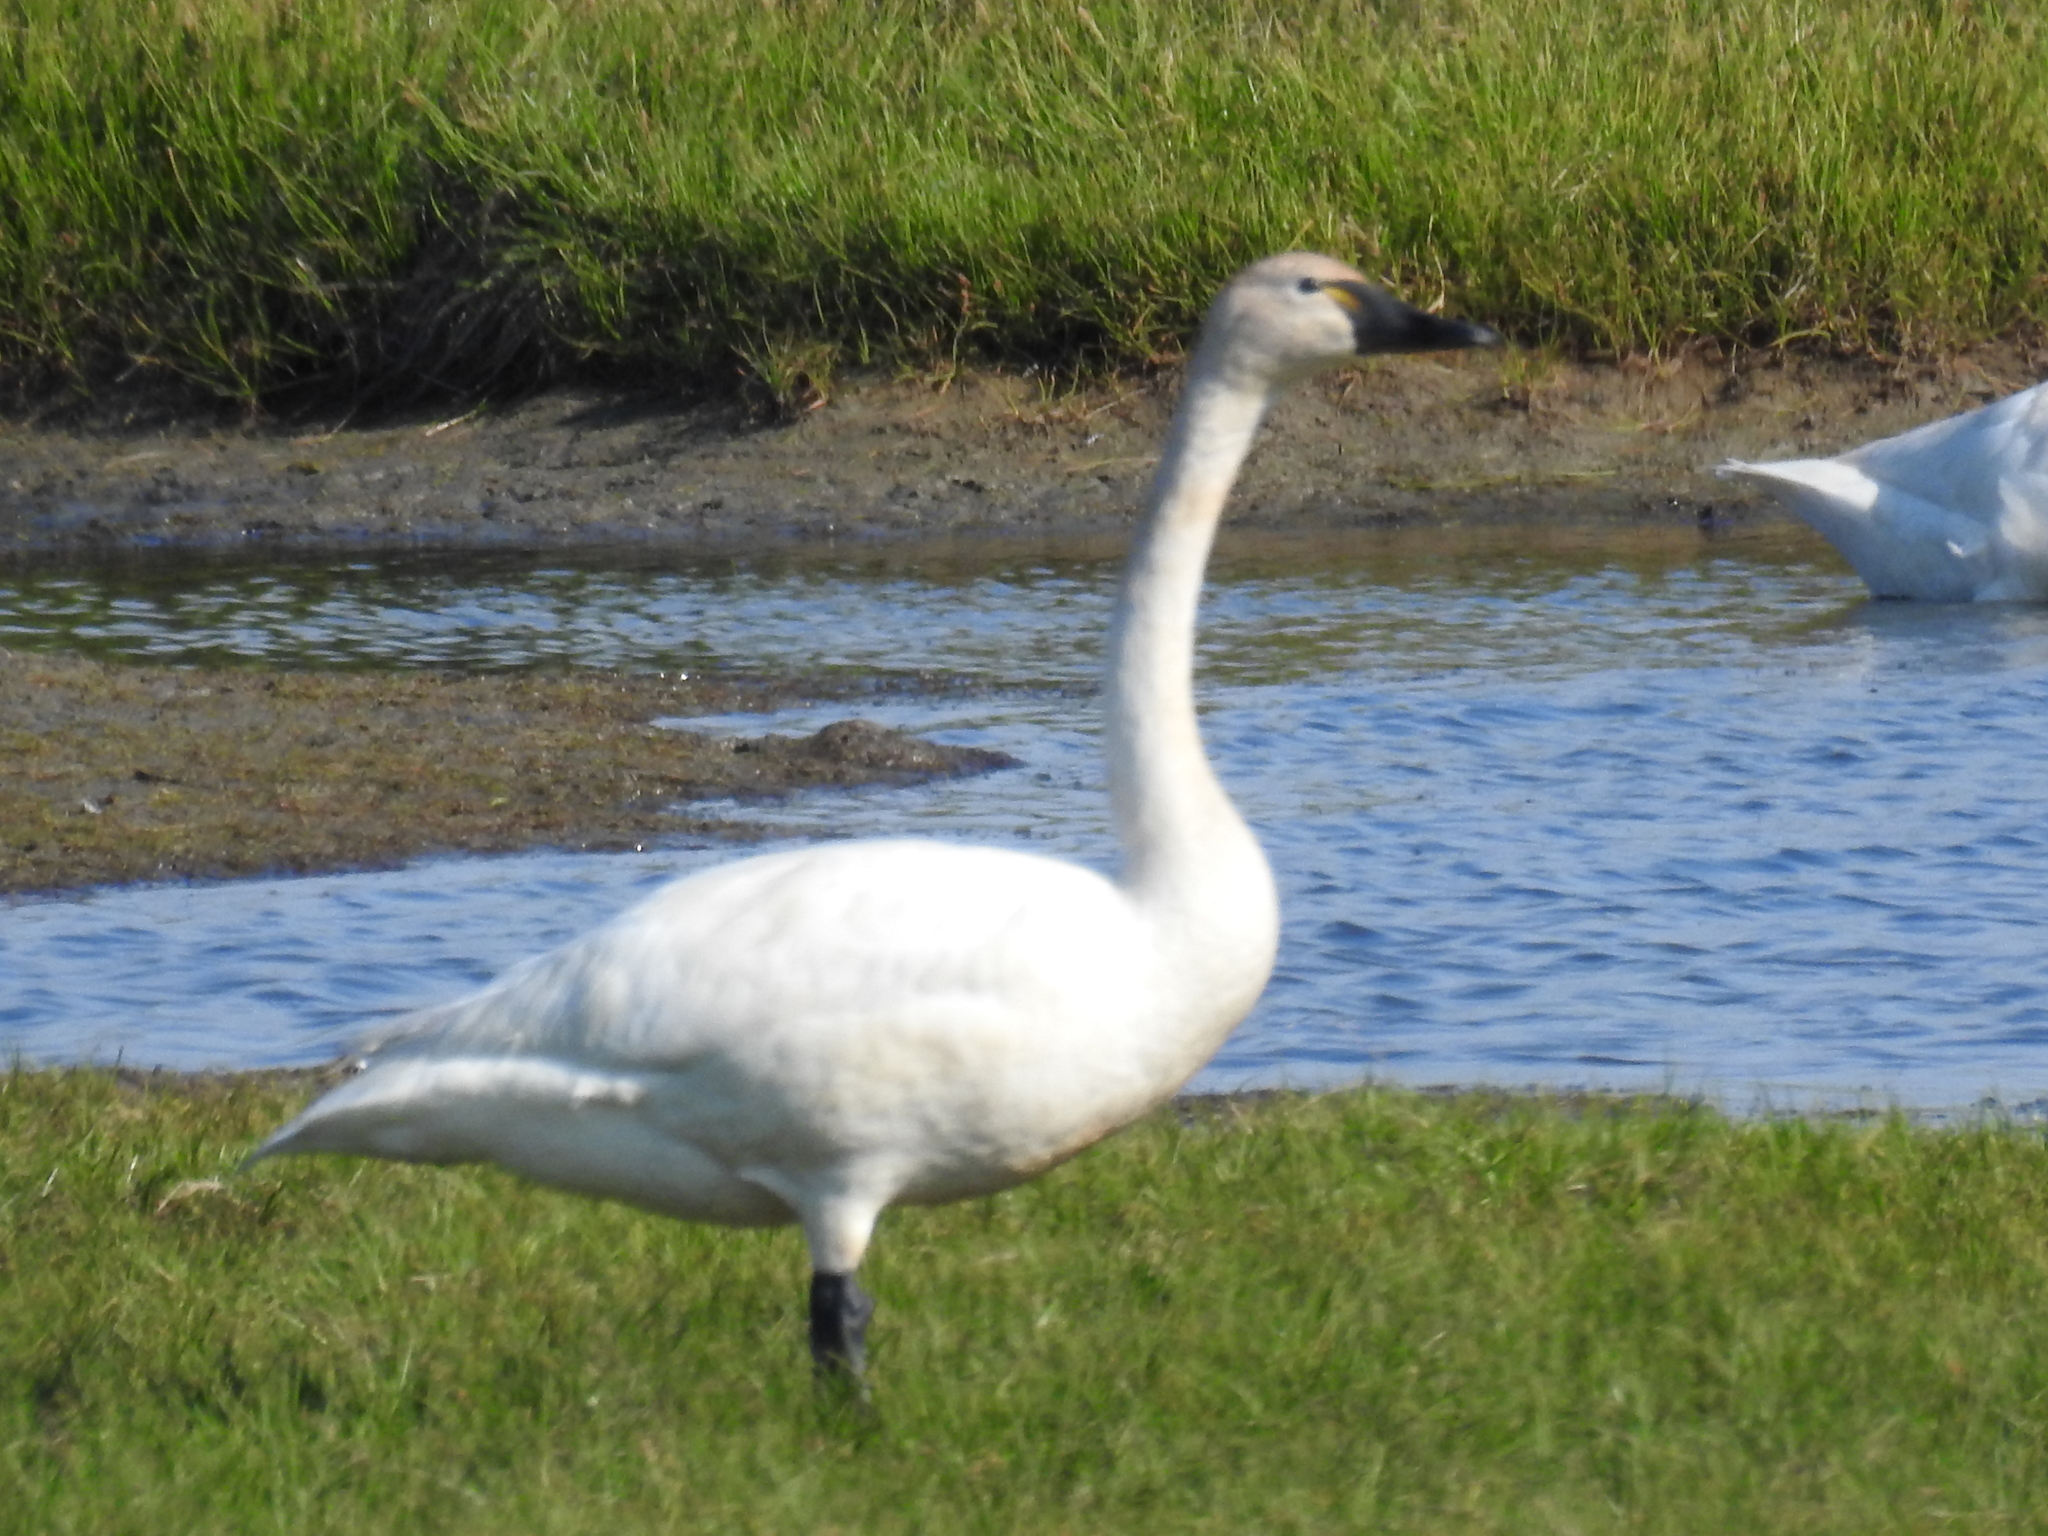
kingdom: Animalia
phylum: Chordata
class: Aves
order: Anseriformes
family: Anatidae
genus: Cygnus
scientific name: Cygnus columbianus
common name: Tundra swan
